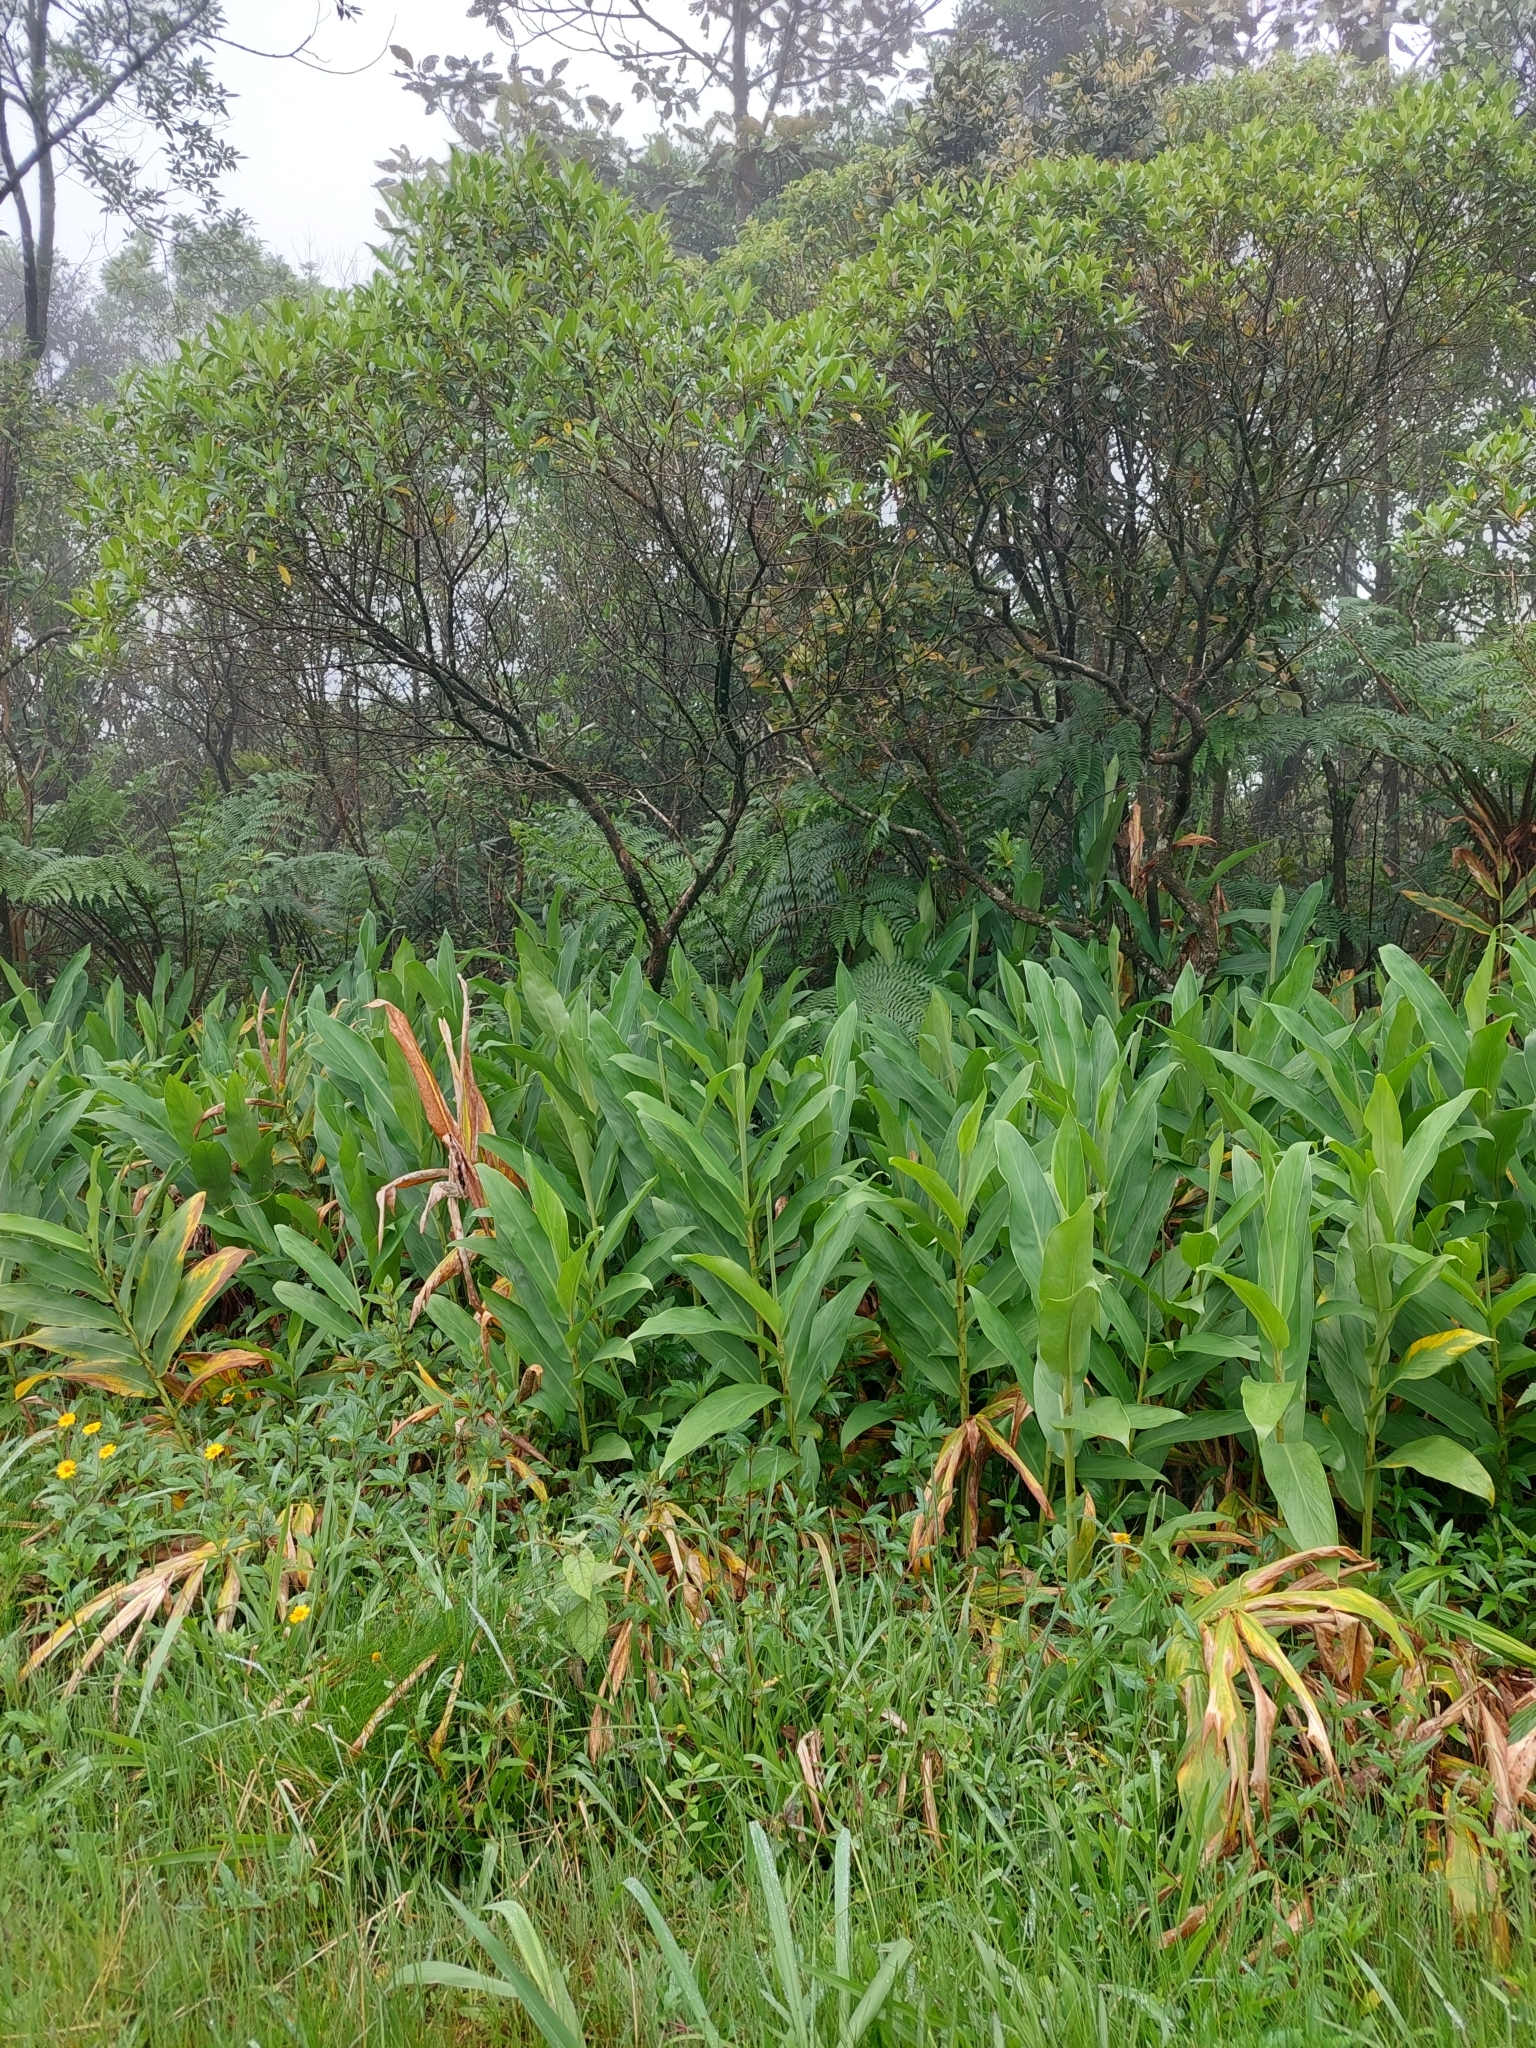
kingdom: Plantae
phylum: Tracheophyta
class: Liliopsida
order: Zingiberales
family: Zingiberaceae
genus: Hedychium
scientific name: Hedychium coronarium
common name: White garland-lily
